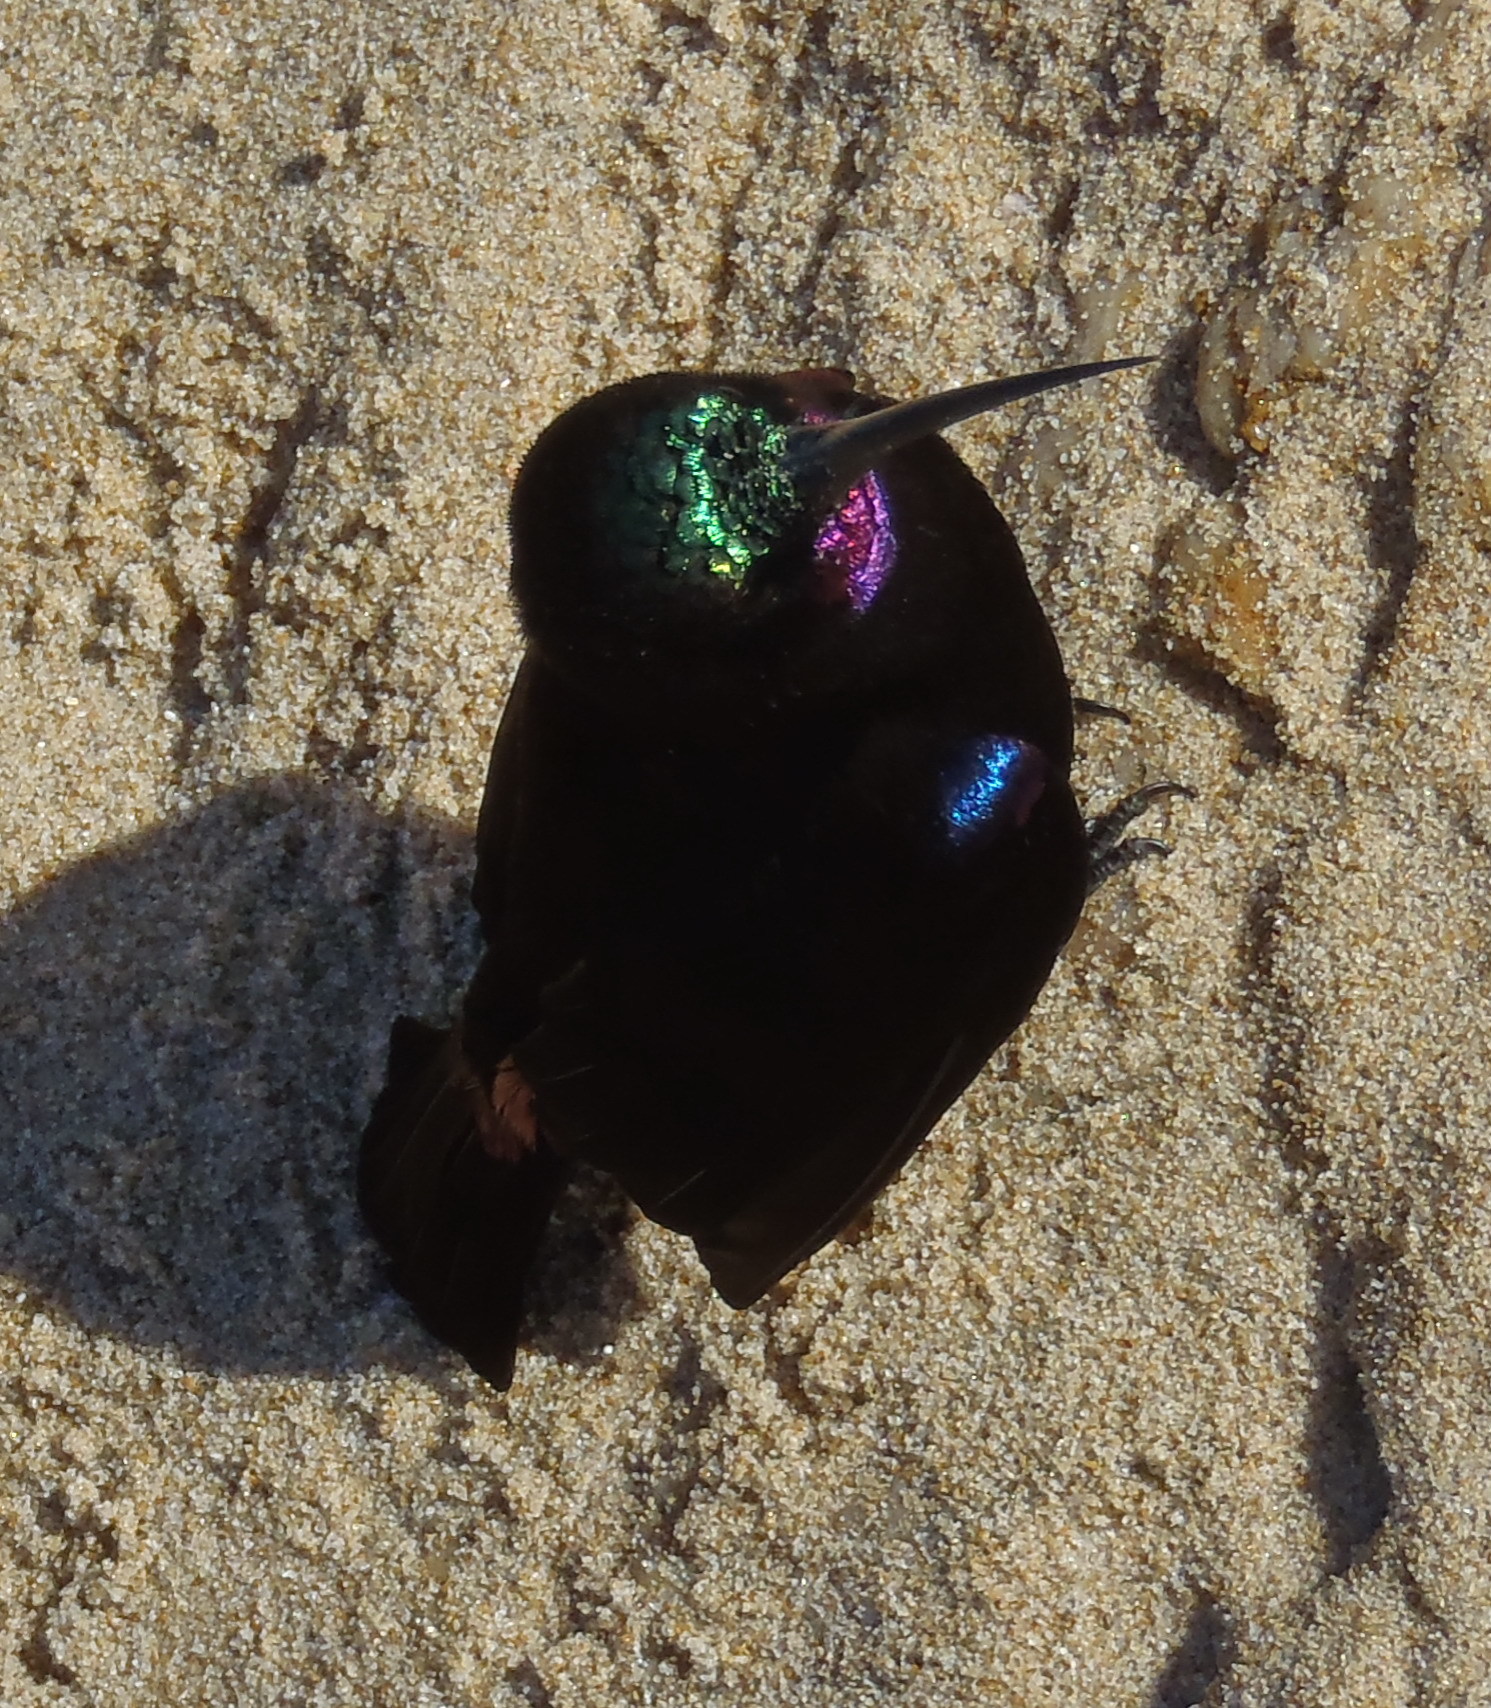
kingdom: Animalia
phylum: Chordata
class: Aves
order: Passeriformes
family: Nectariniidae
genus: Chalcomitra
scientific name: Chalcomitra amethystina
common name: Amethyst sunbird
